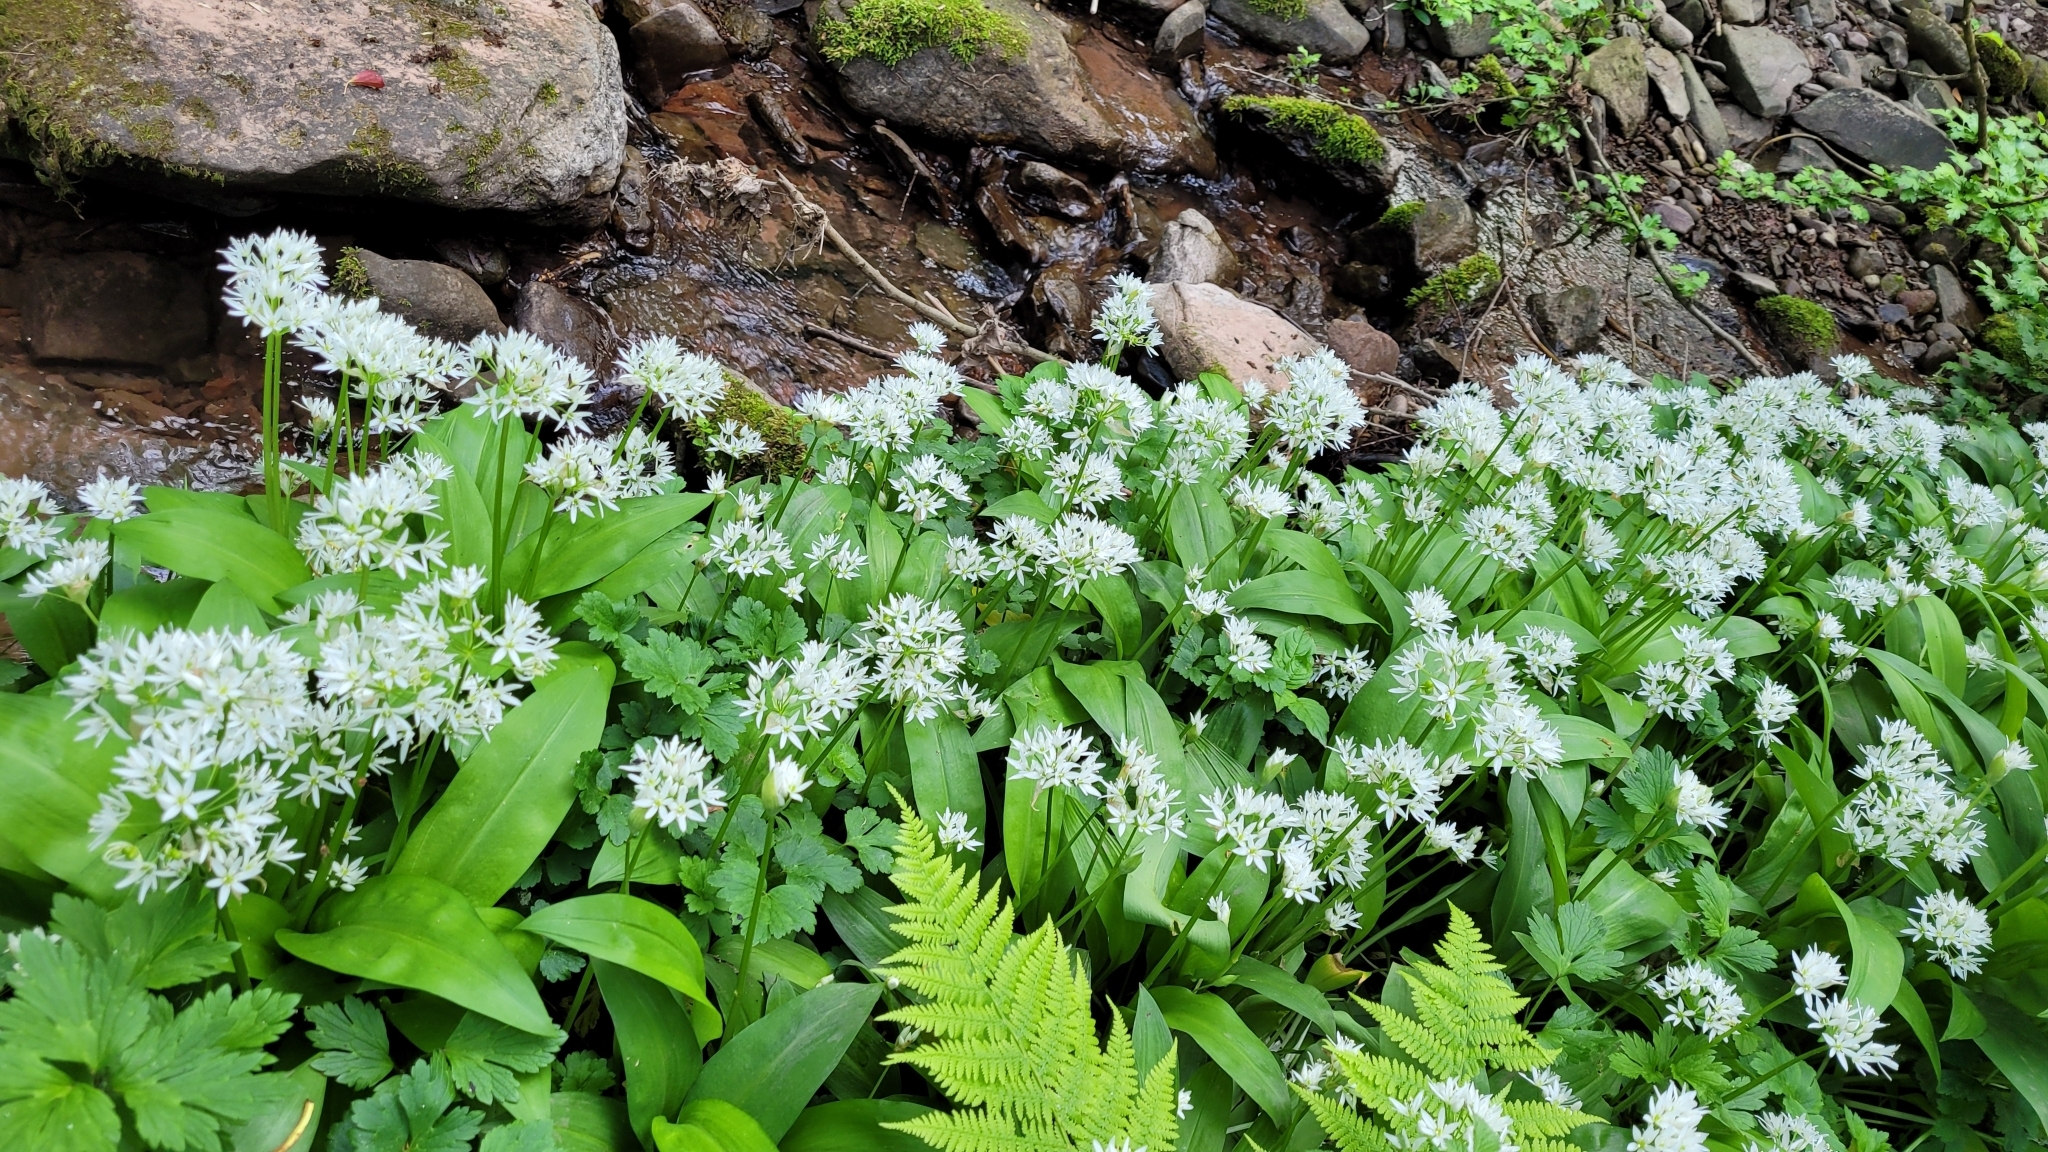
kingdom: Plantae
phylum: Tracheophyta
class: Liliopsida
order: Asparagales
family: Amaryllidaceae
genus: Allium
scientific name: Allium ursinum
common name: Ramsons
